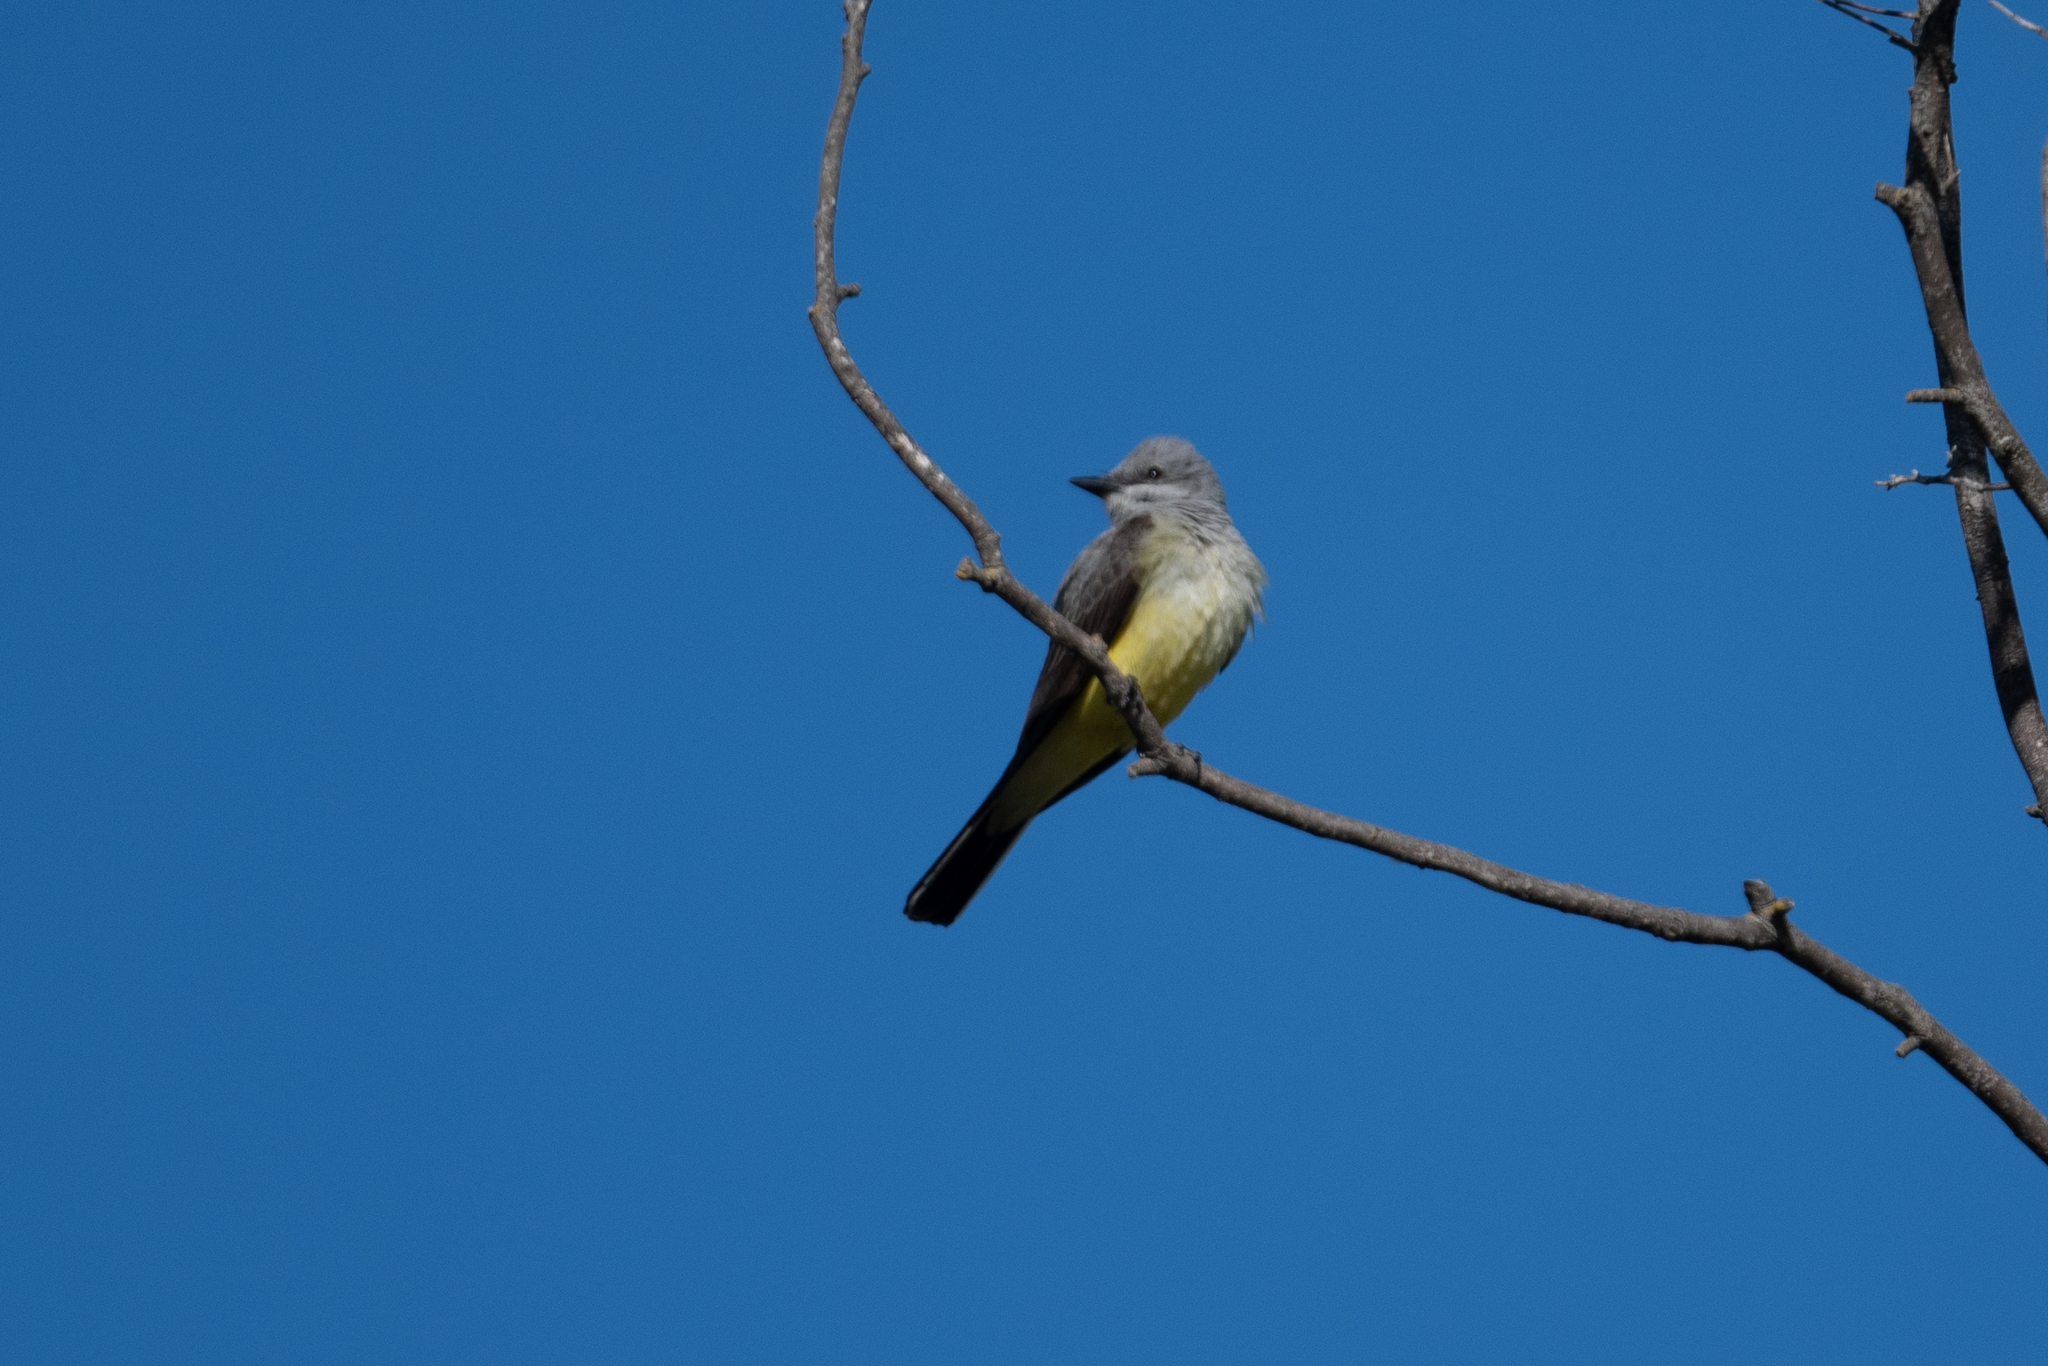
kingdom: Animalia
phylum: Chordata
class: Aves
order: Passeriformes
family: Tyrannidae
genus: Tyrannus
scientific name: Tyrannus verticalis
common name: Western kingbird
